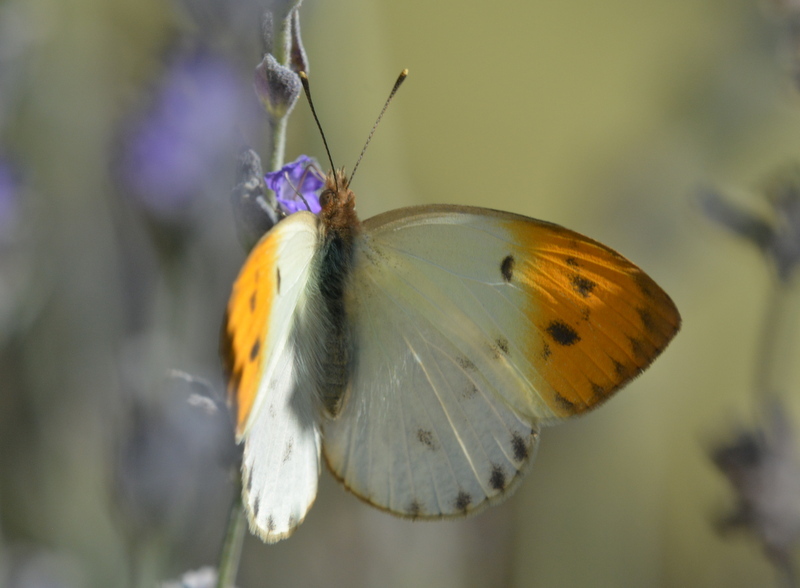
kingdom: Animalia
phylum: Arthropoda
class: Insecta
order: Lepidoptera
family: Pieridae
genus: Colotis
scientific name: Colotis auxo
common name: Sulphur orange tip
